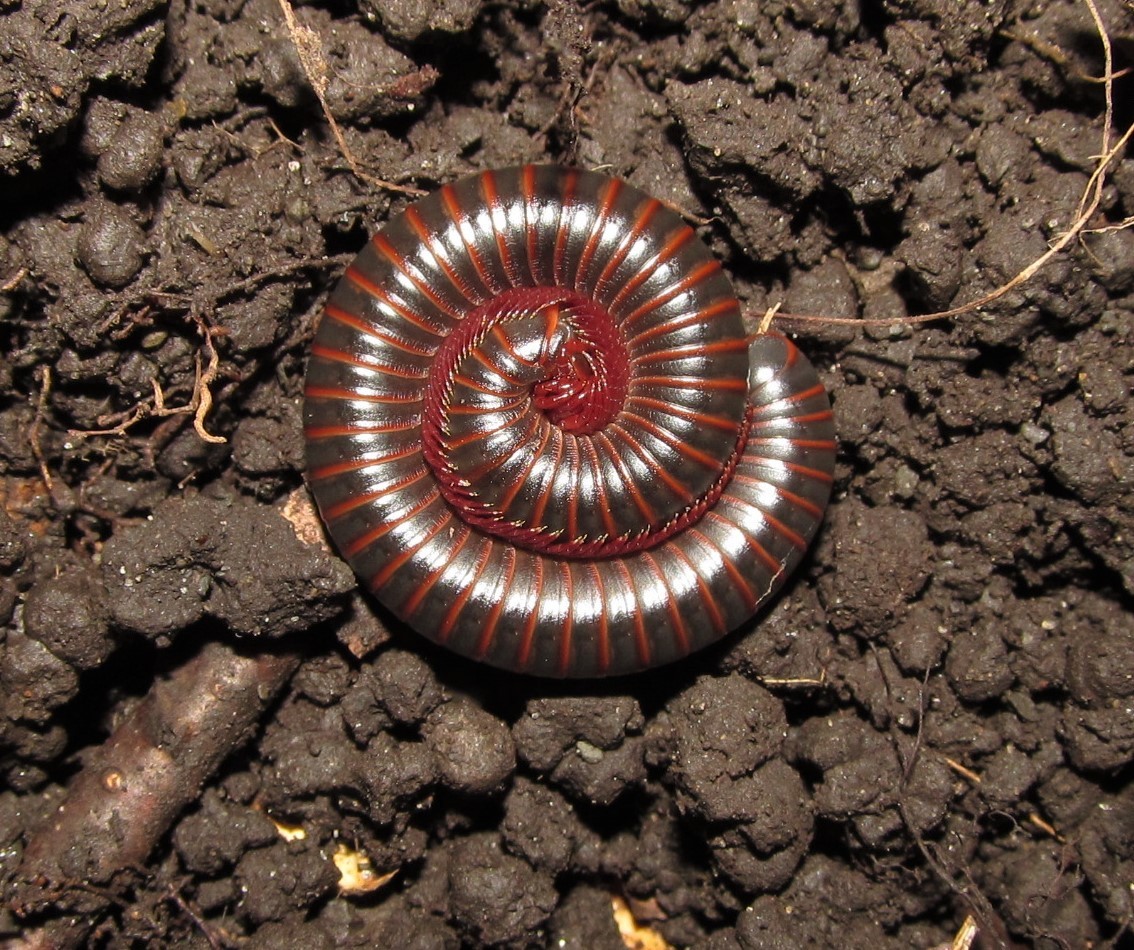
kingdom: Animalia
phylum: Arthropoda
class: Diplopoda
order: Spirobolida
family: Spirobolidae
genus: Narceus
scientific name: Narceus
